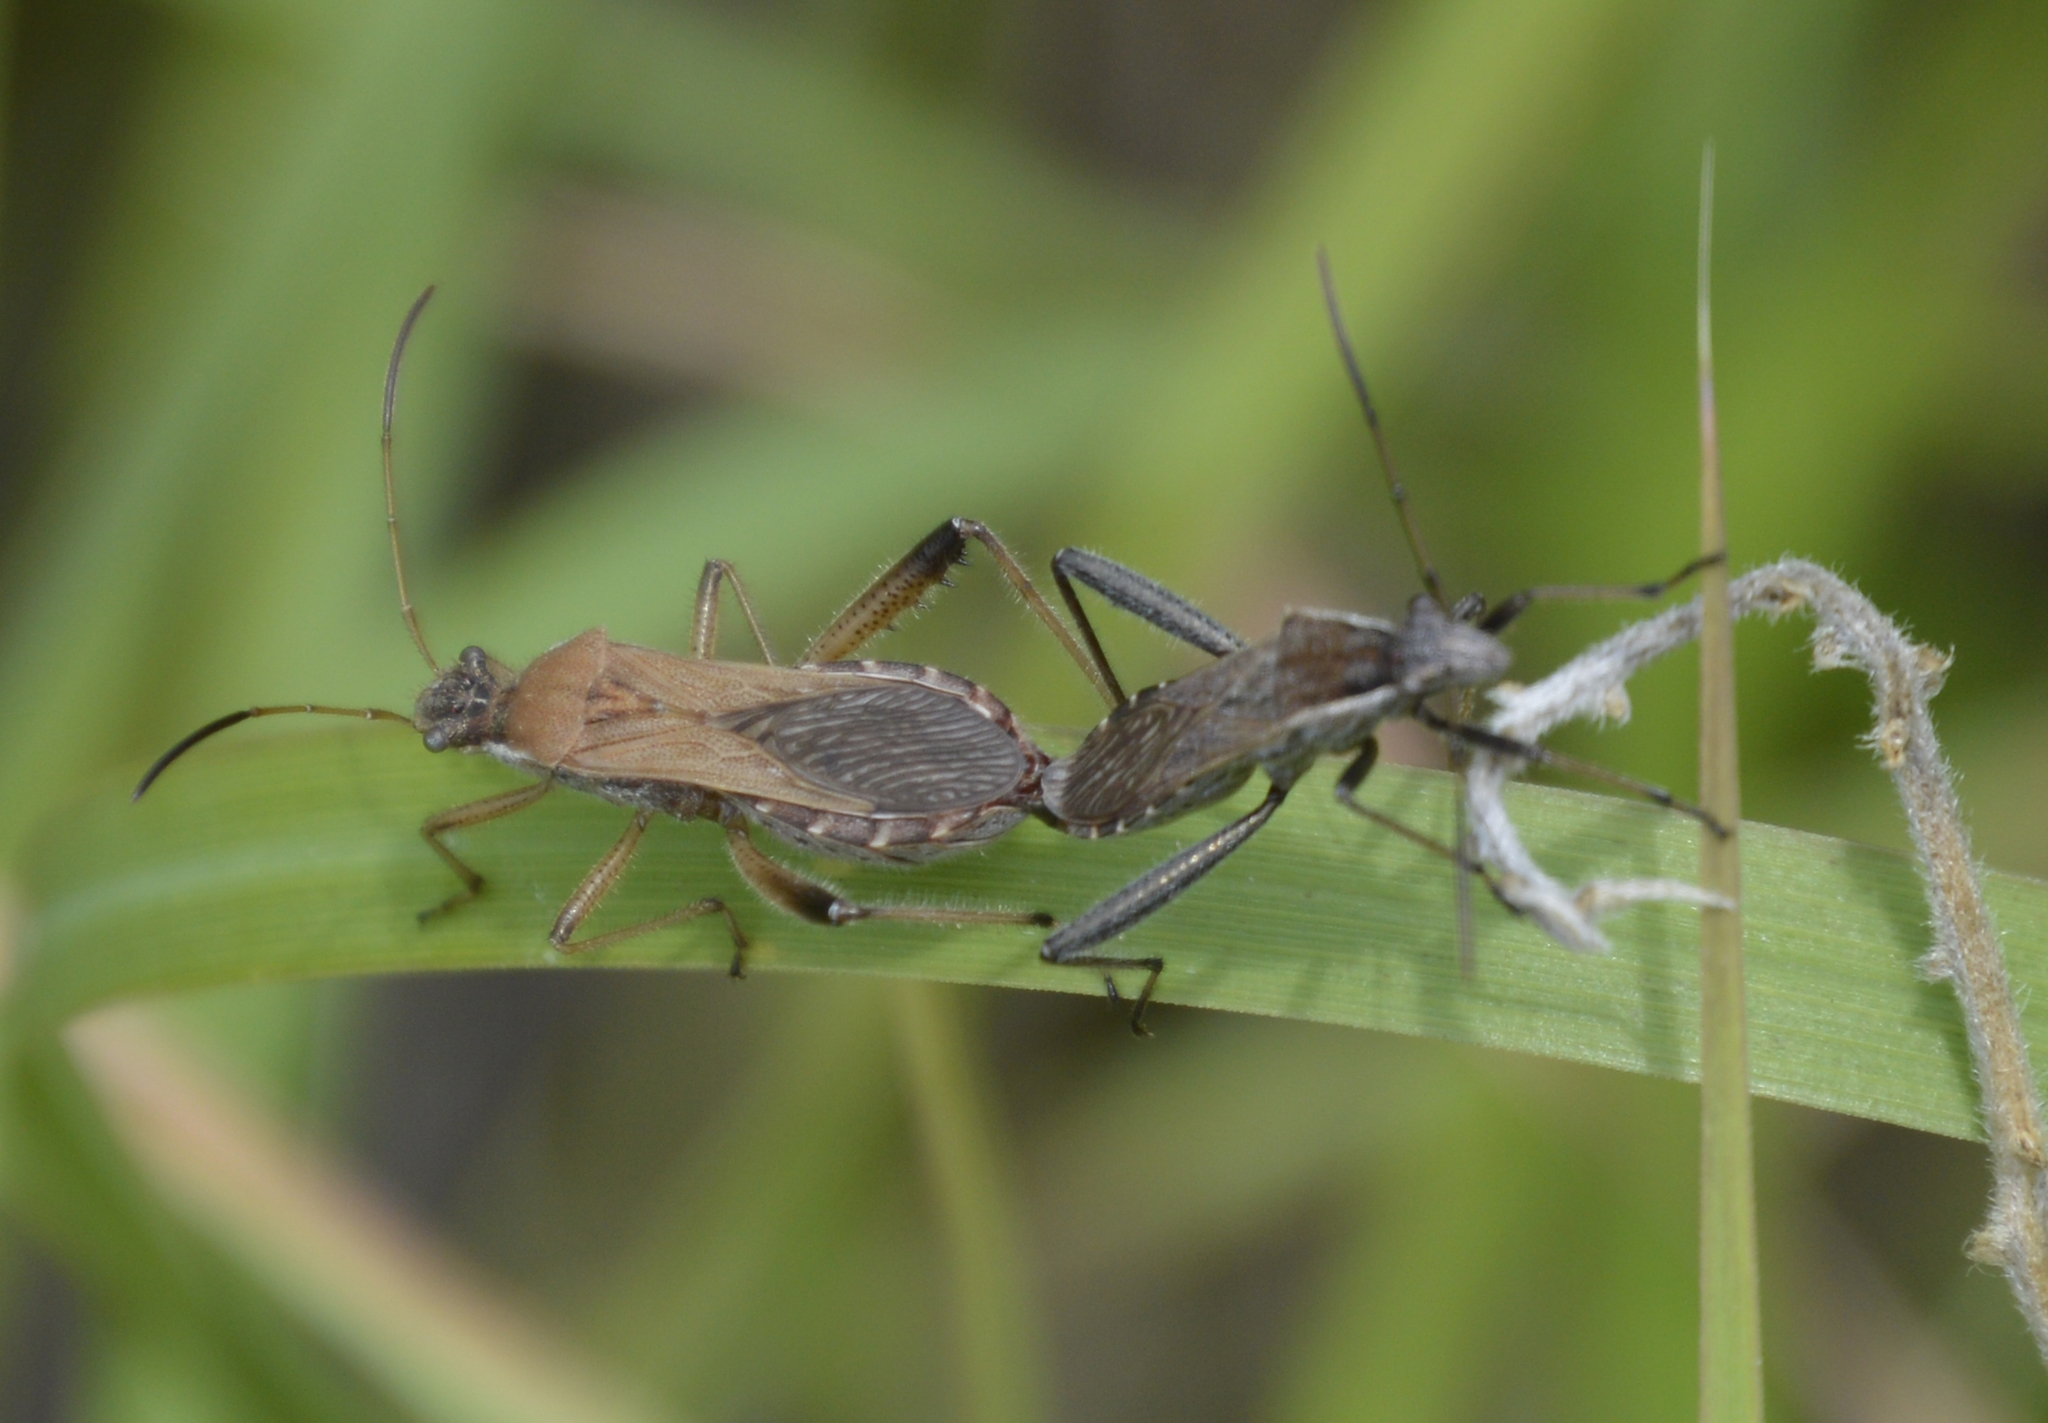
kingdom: Animalia
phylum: Arthropoda
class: Insecta
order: Hemiptera
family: Alydidae
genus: Alydus
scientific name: Alydus pilosulus
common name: Broad-headed bug
